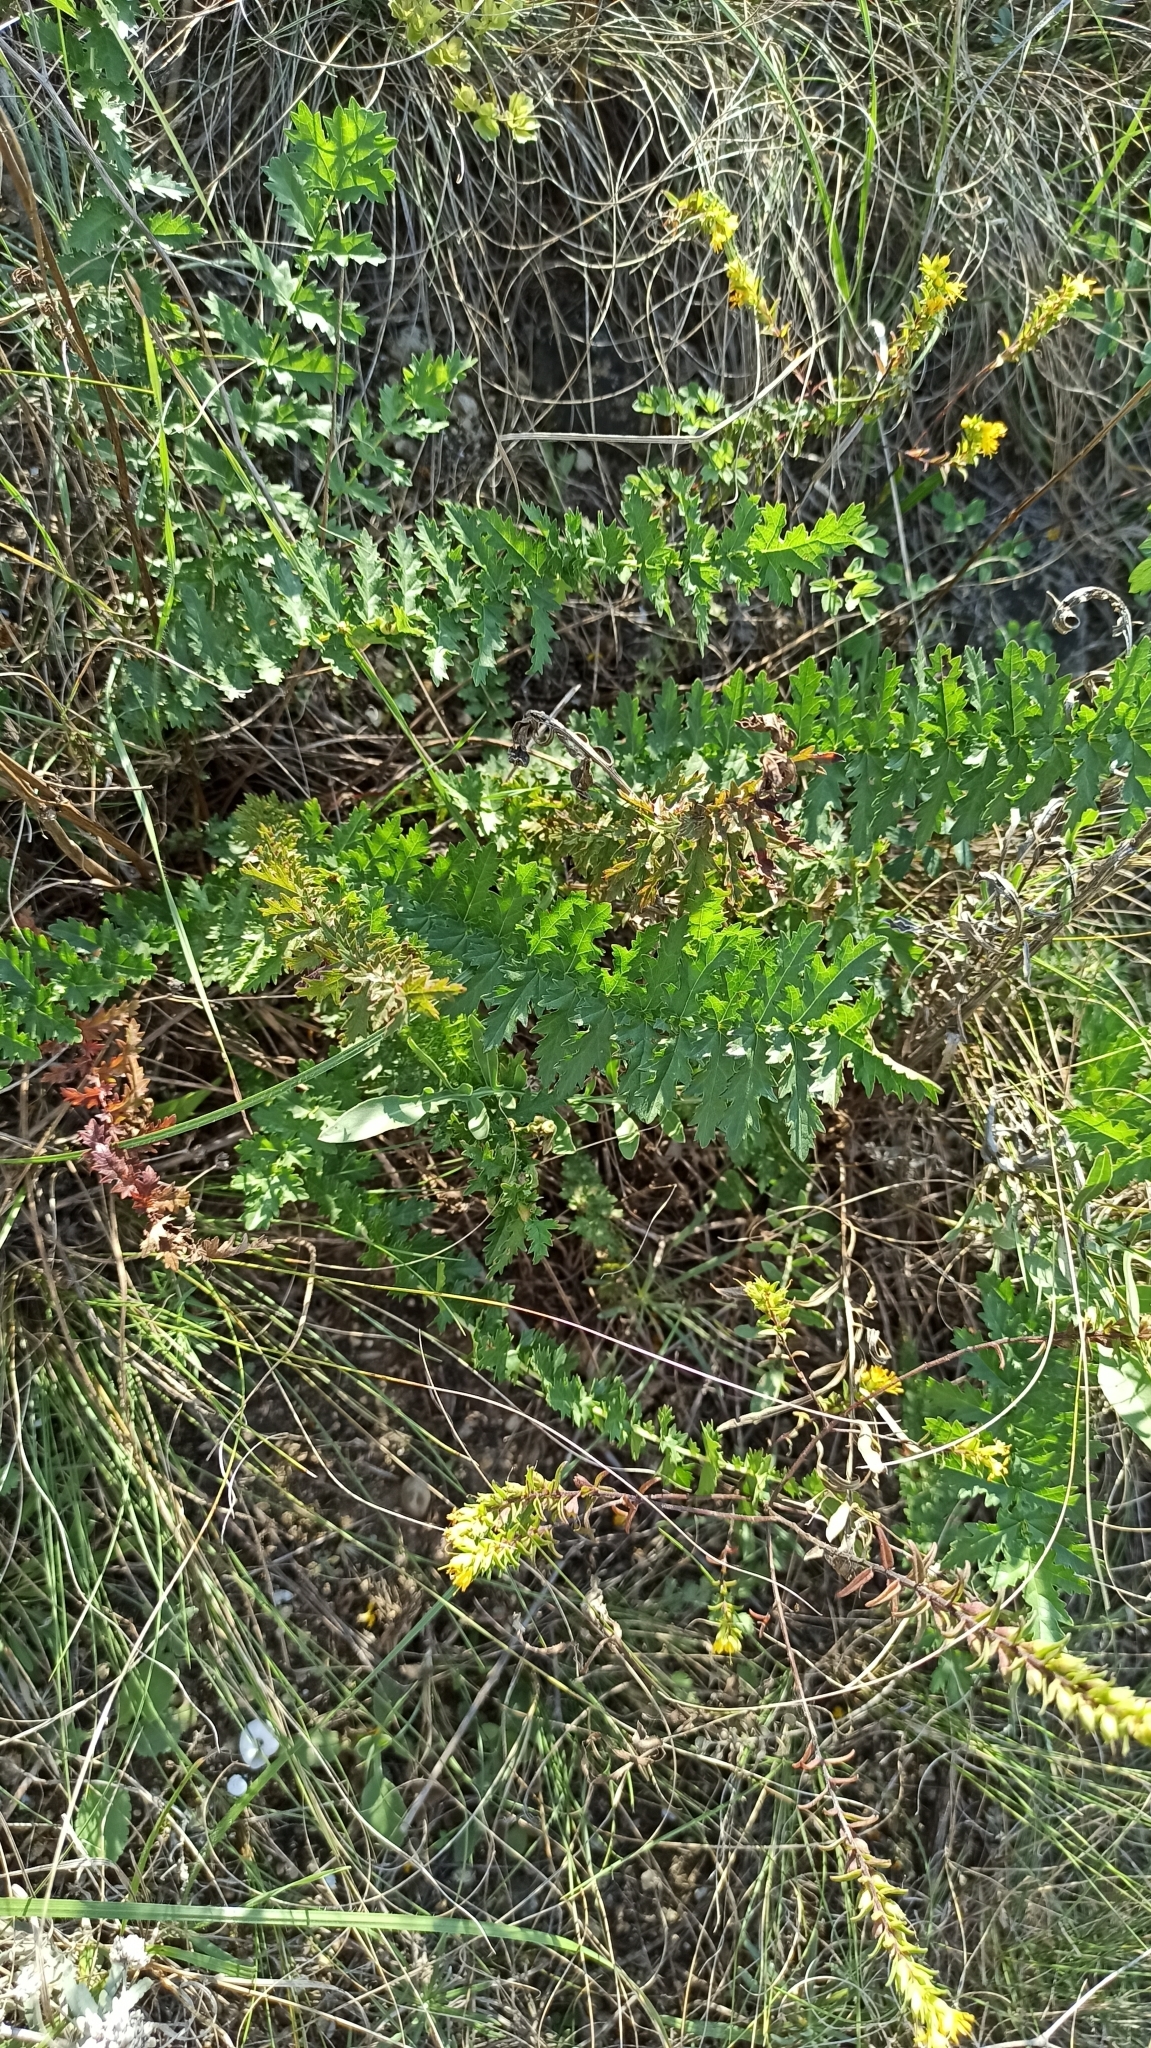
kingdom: Plantae
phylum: Tracheophyta
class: Magnoliopsida
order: Rosales
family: Rosaceae
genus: Filipendula
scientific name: Filipendula vulgaris
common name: Dropwort
